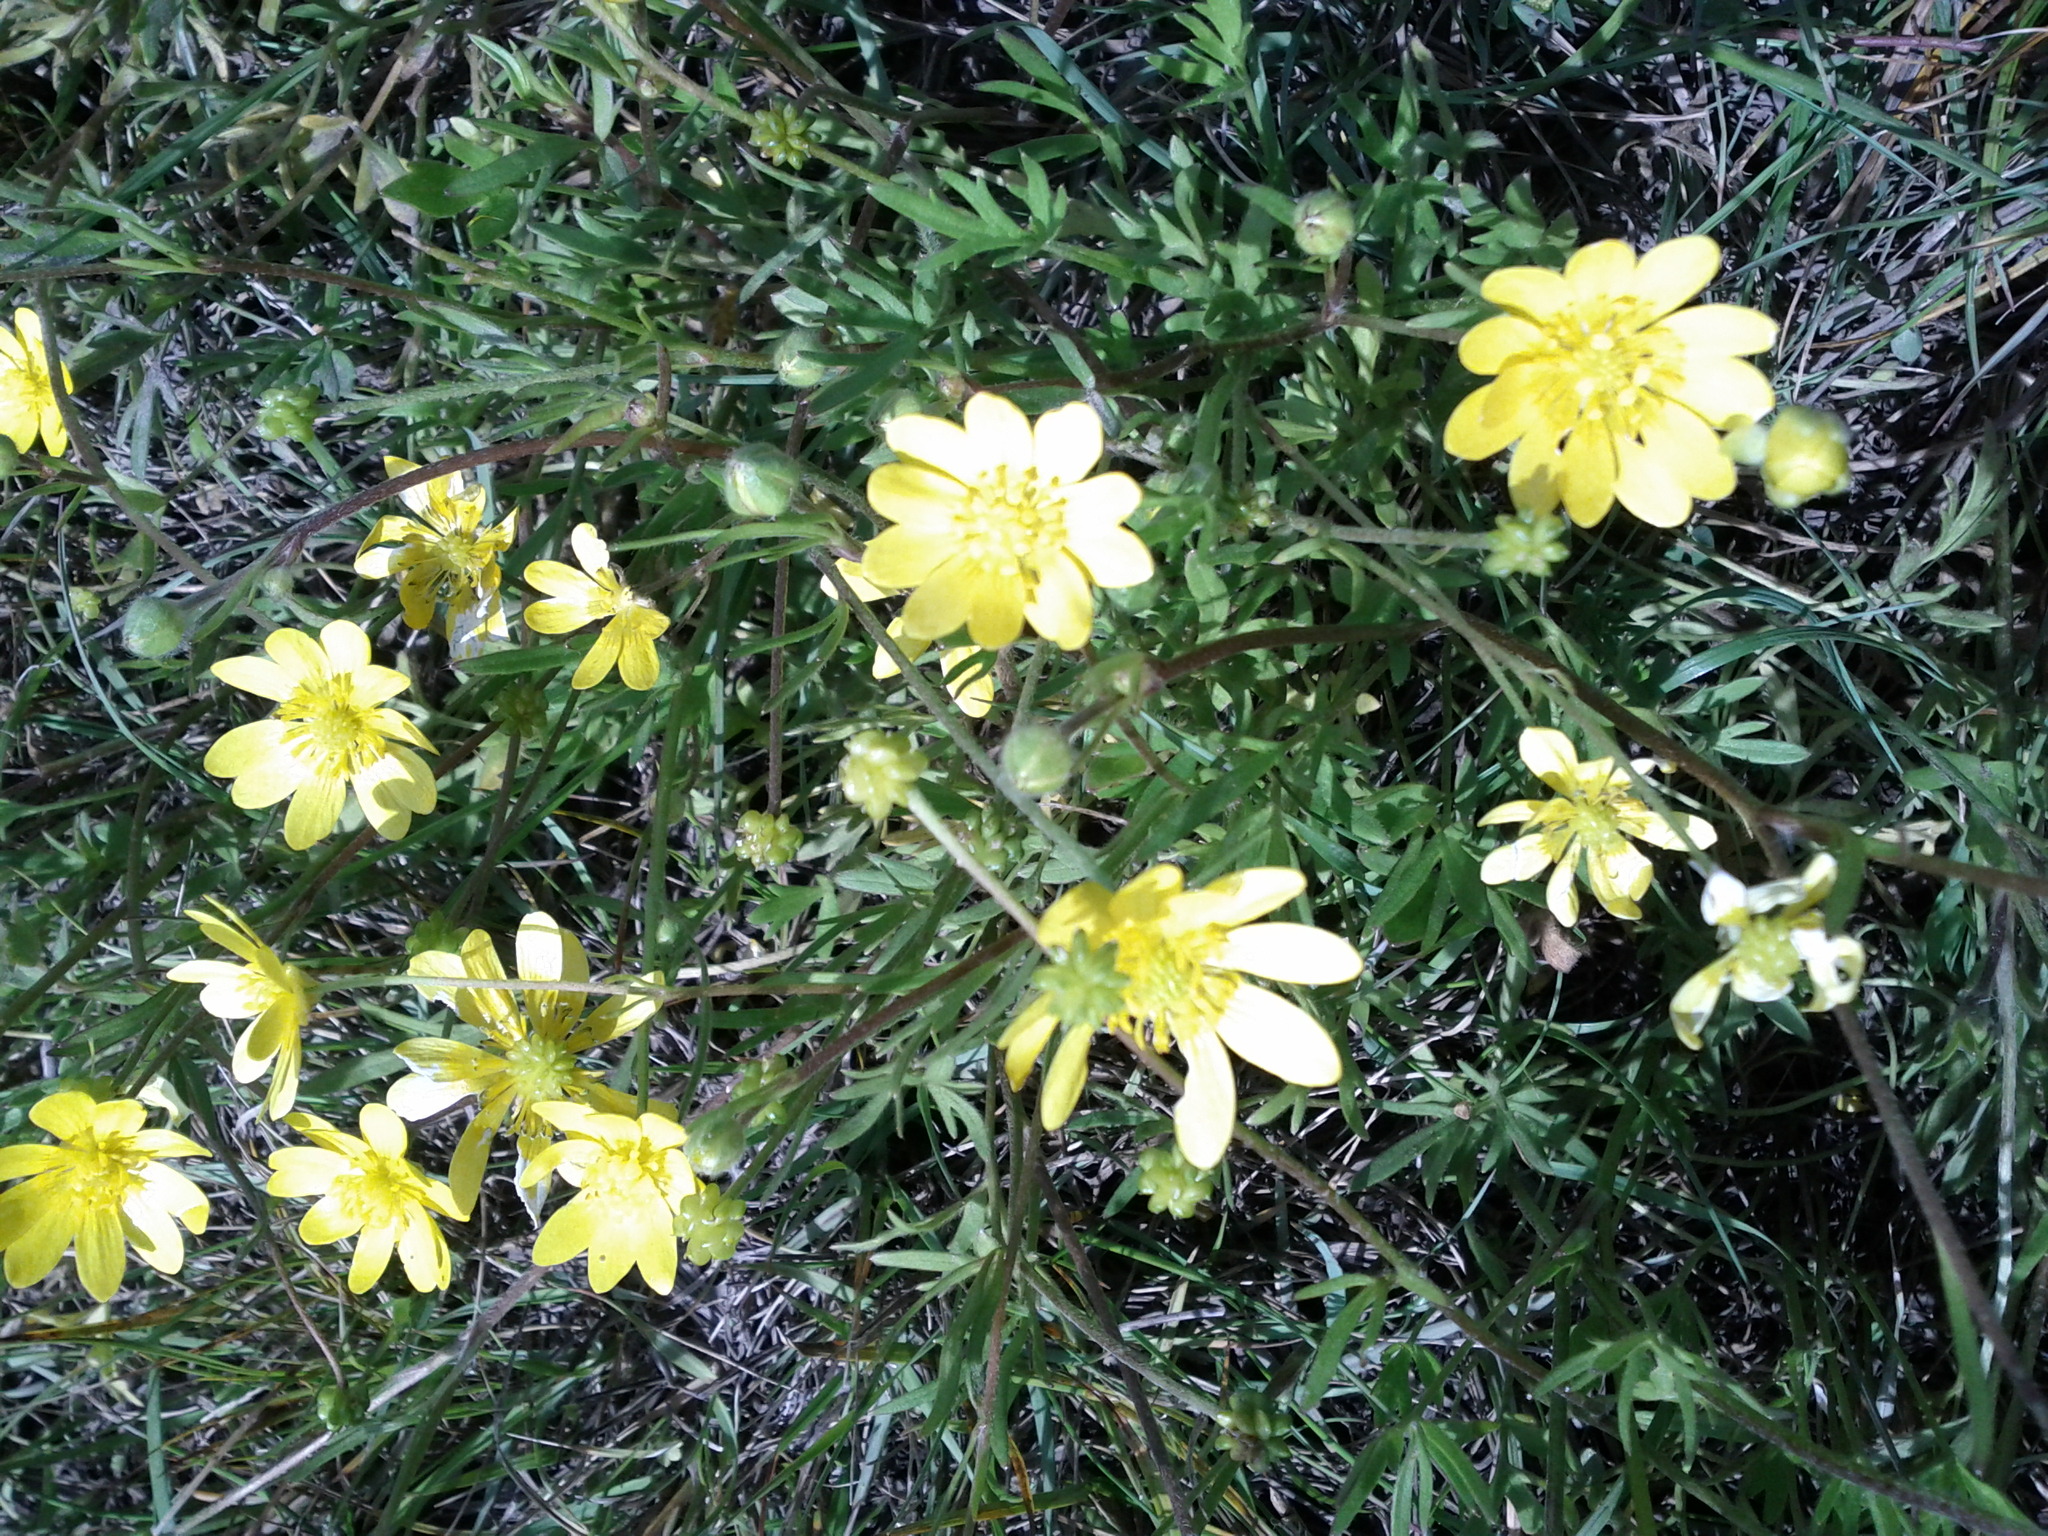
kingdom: Plantae
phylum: Tracheophyta
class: Magnoliopsida
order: Ranunculales
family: Ranunculaceae
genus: Ranunculus
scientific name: Ranunculus californicus
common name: California buttercup
